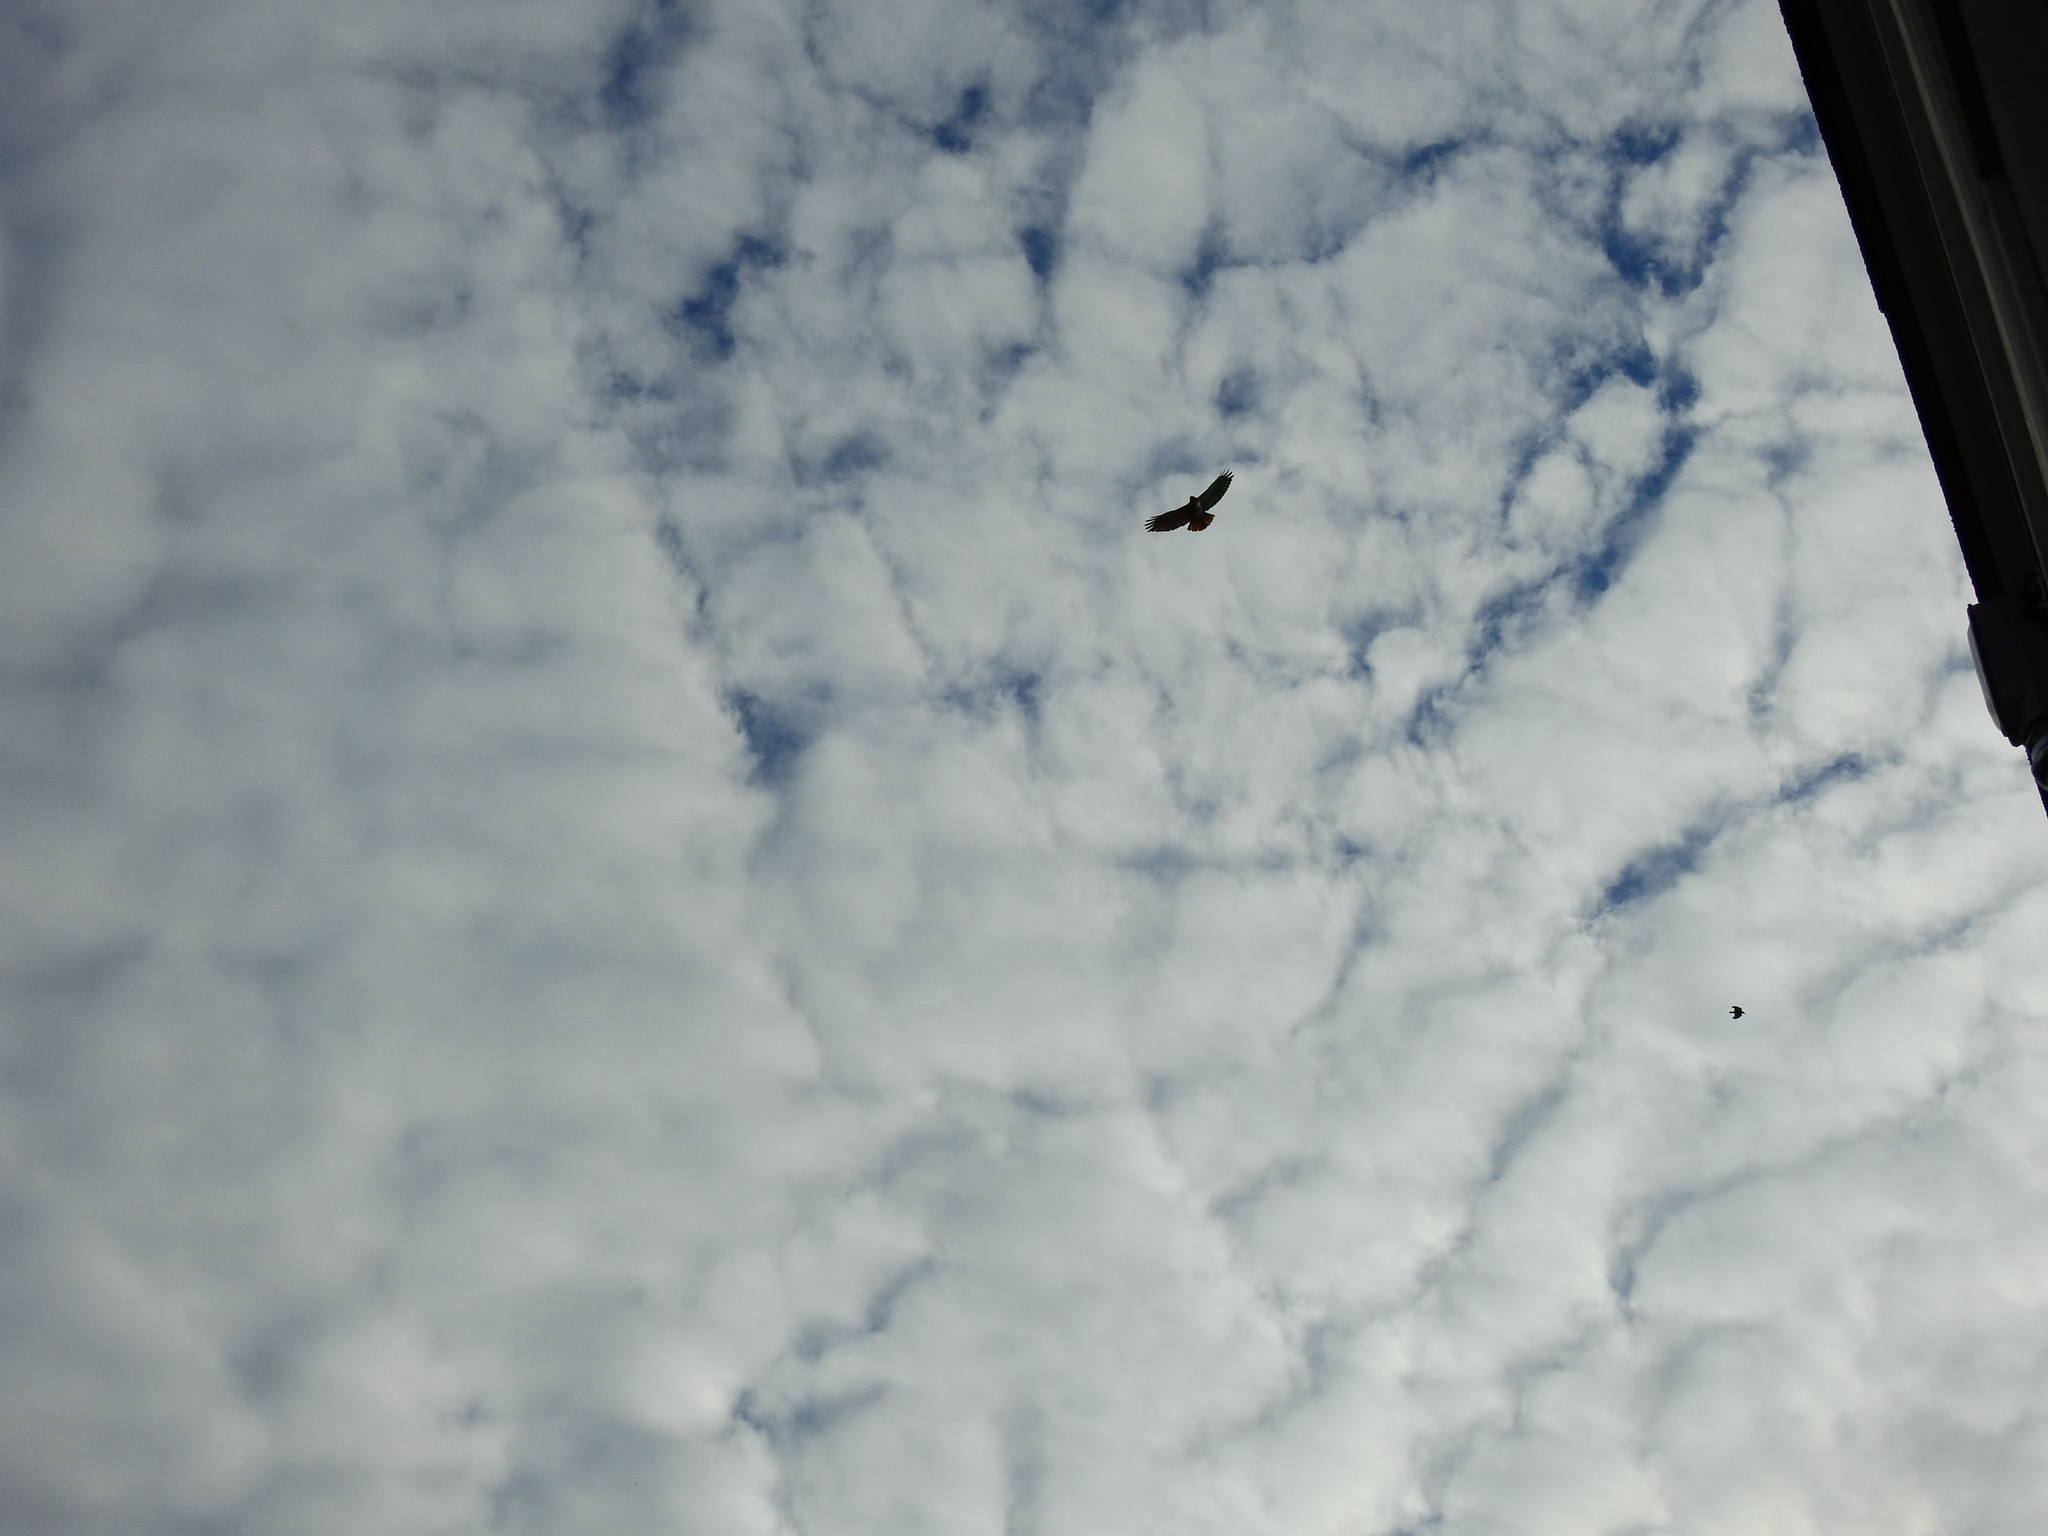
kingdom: Animalia
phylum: Chordata
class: Aves
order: Accipitriformes
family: Accipitridae
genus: Buteo
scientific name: Buteo jamaicensis
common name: Red-tailed hawk
